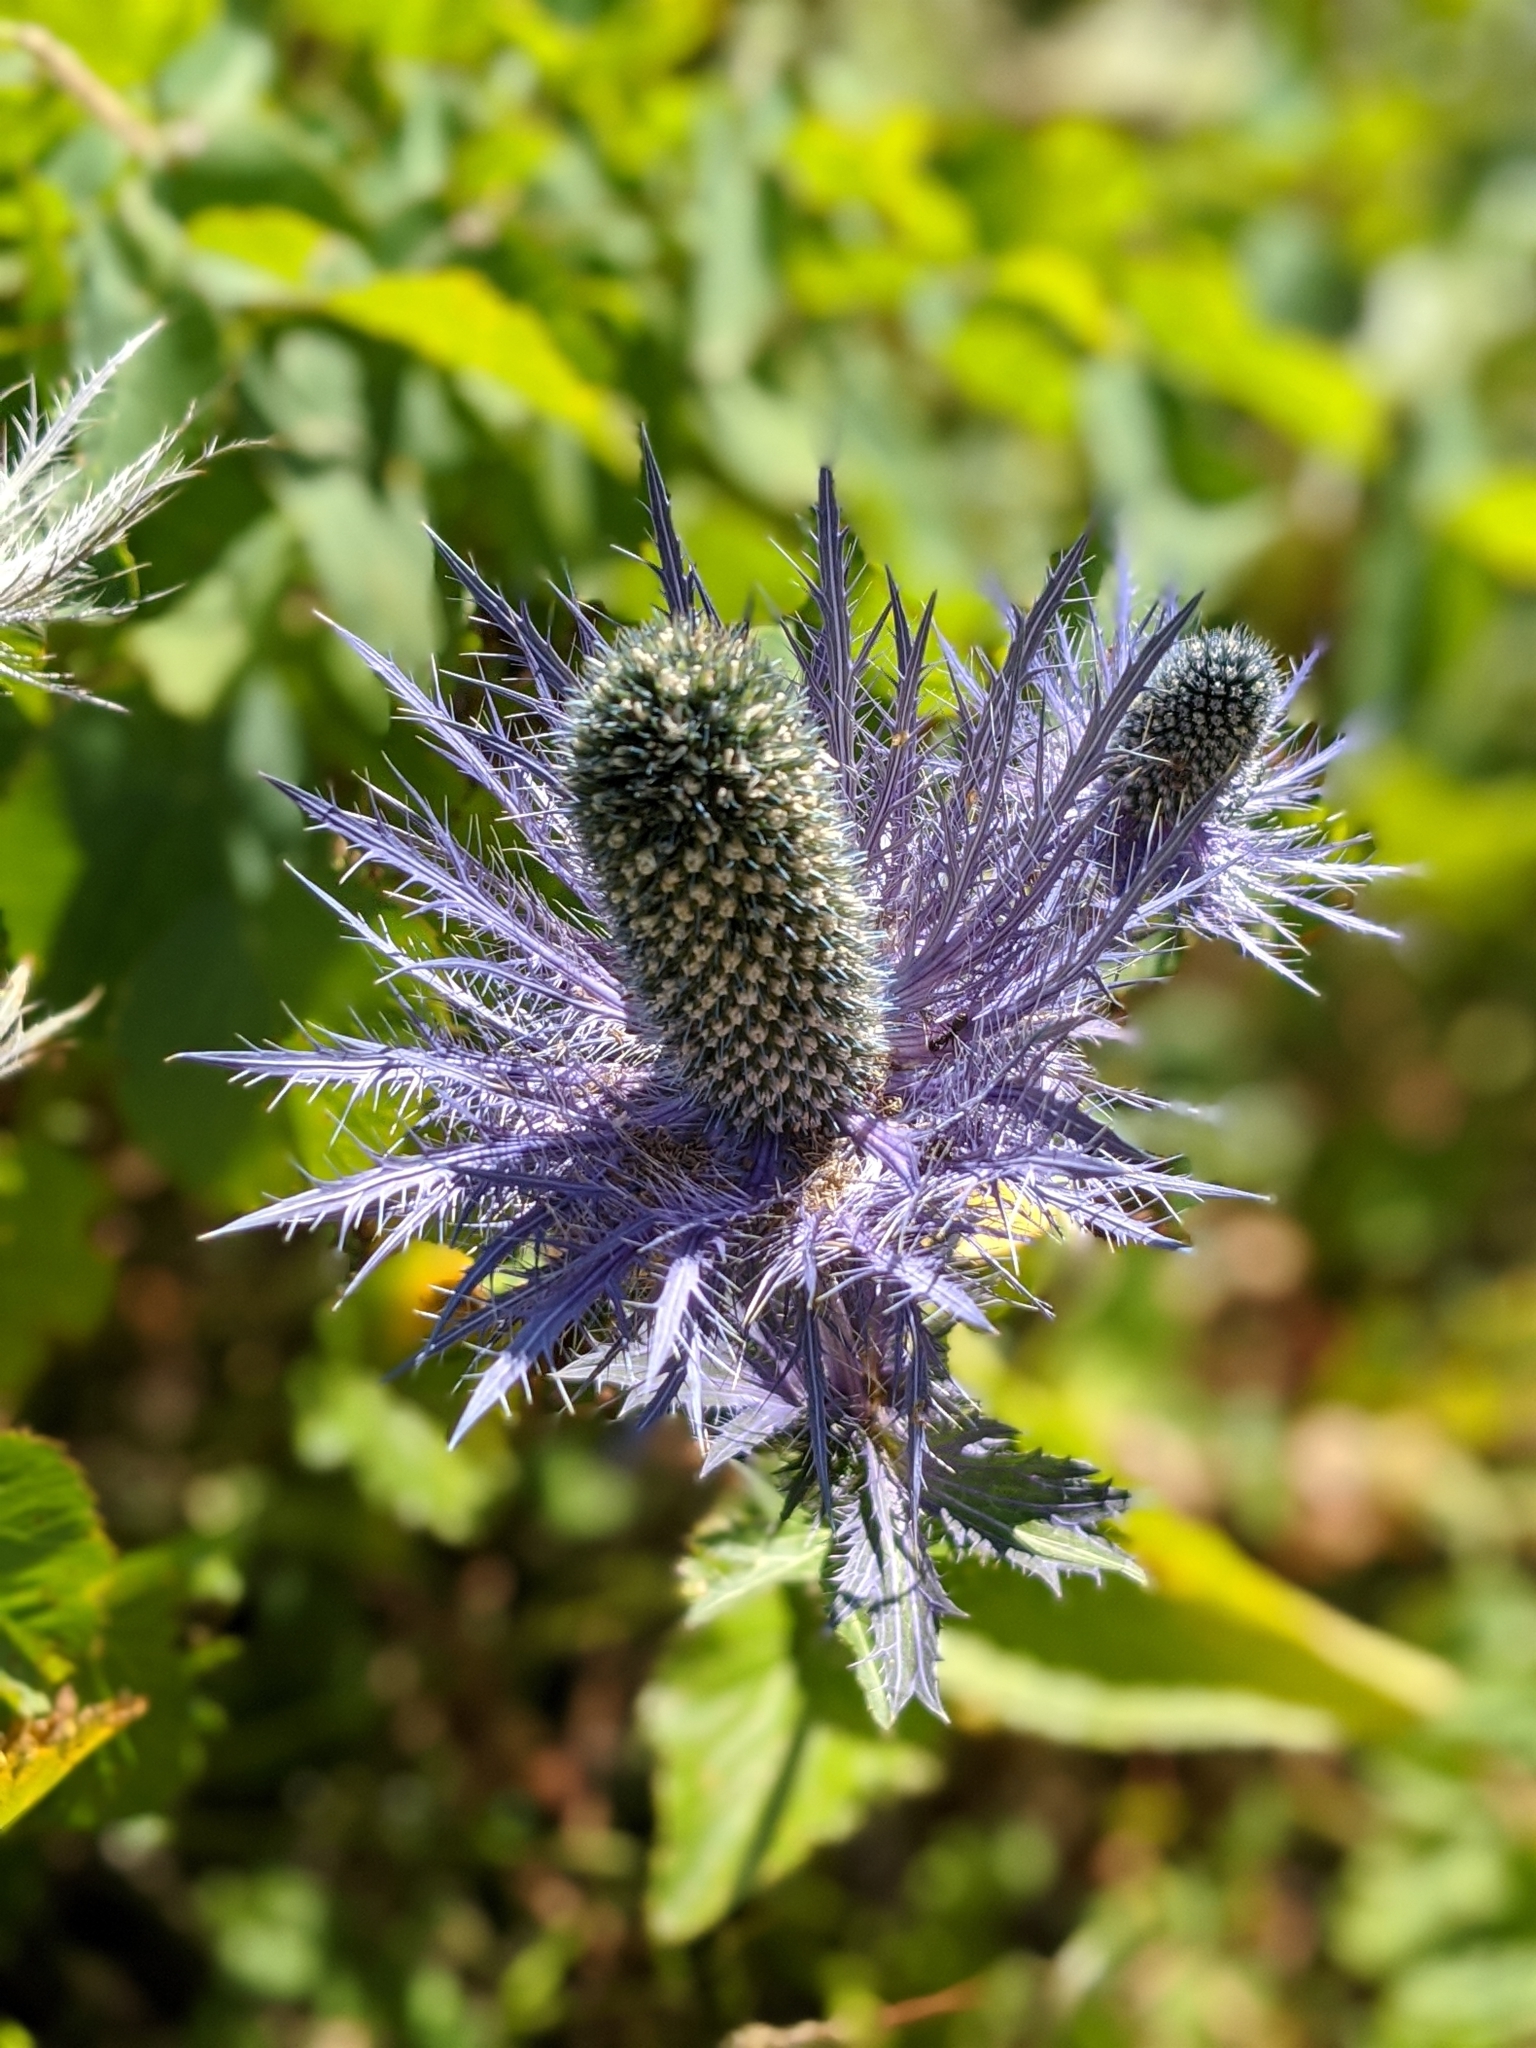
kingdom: Plantae
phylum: Tracheophyta
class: Magnoliopsida
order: Apiales
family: Apiaceae
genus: Eryngium
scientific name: Eryngium alpinum
